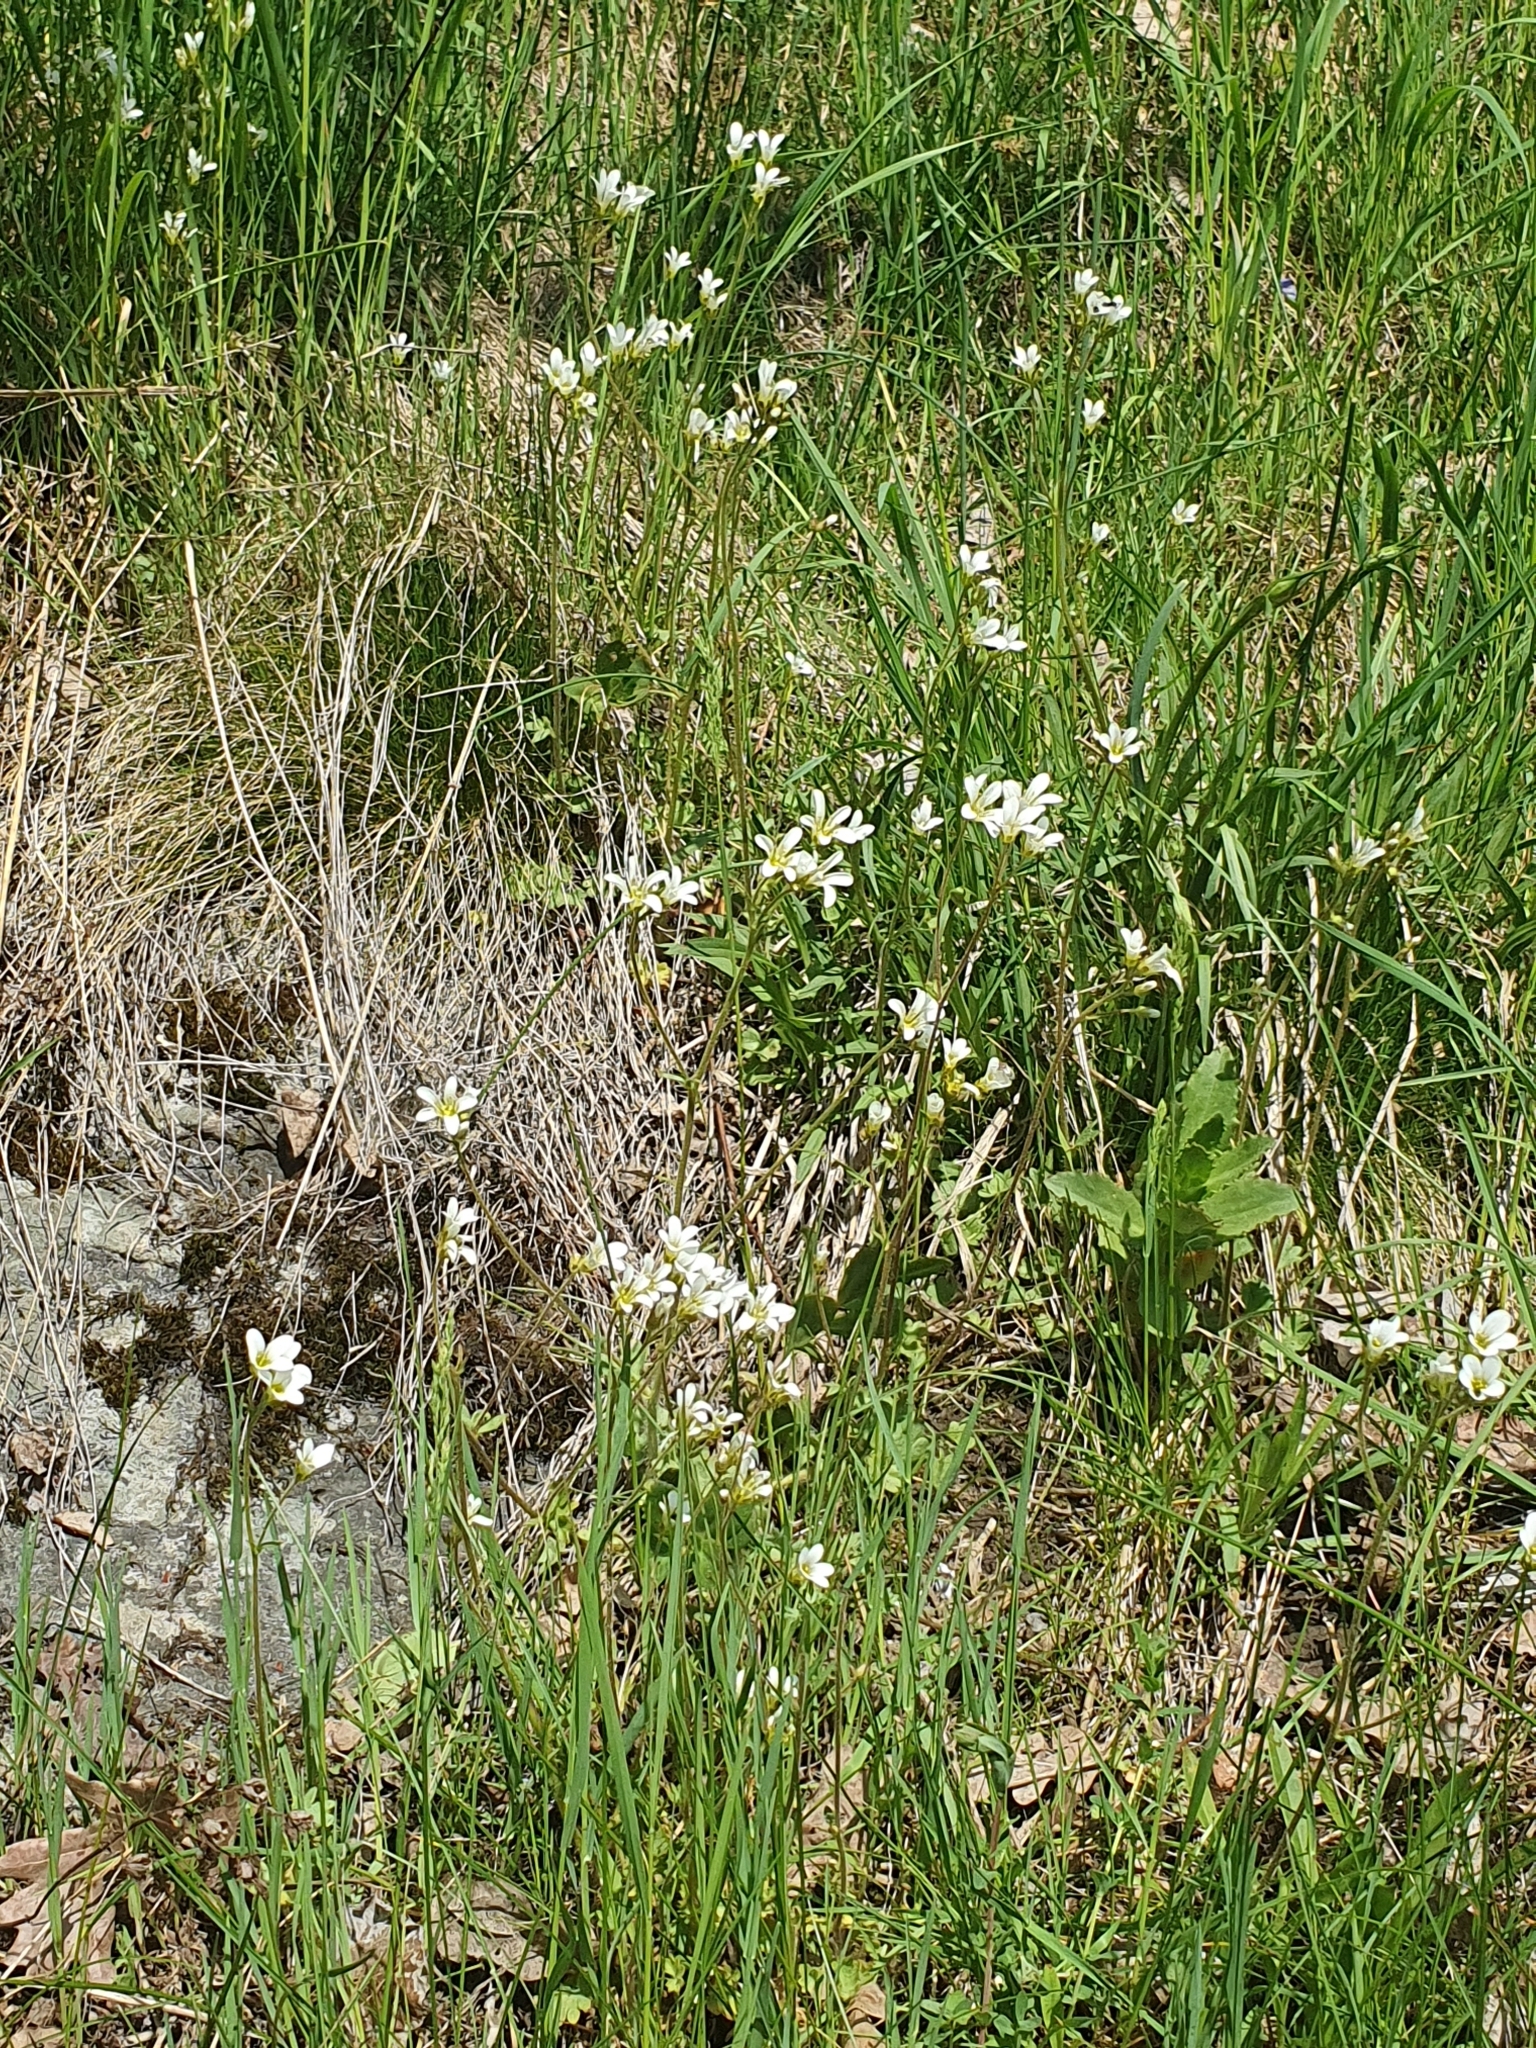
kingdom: Plantae
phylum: Tracheophyta
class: Magnoliopsida
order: Saxifragales
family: Saxifragaceae
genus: Saxifraga
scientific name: Saxifraga granulata
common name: Meadow saxifrage
